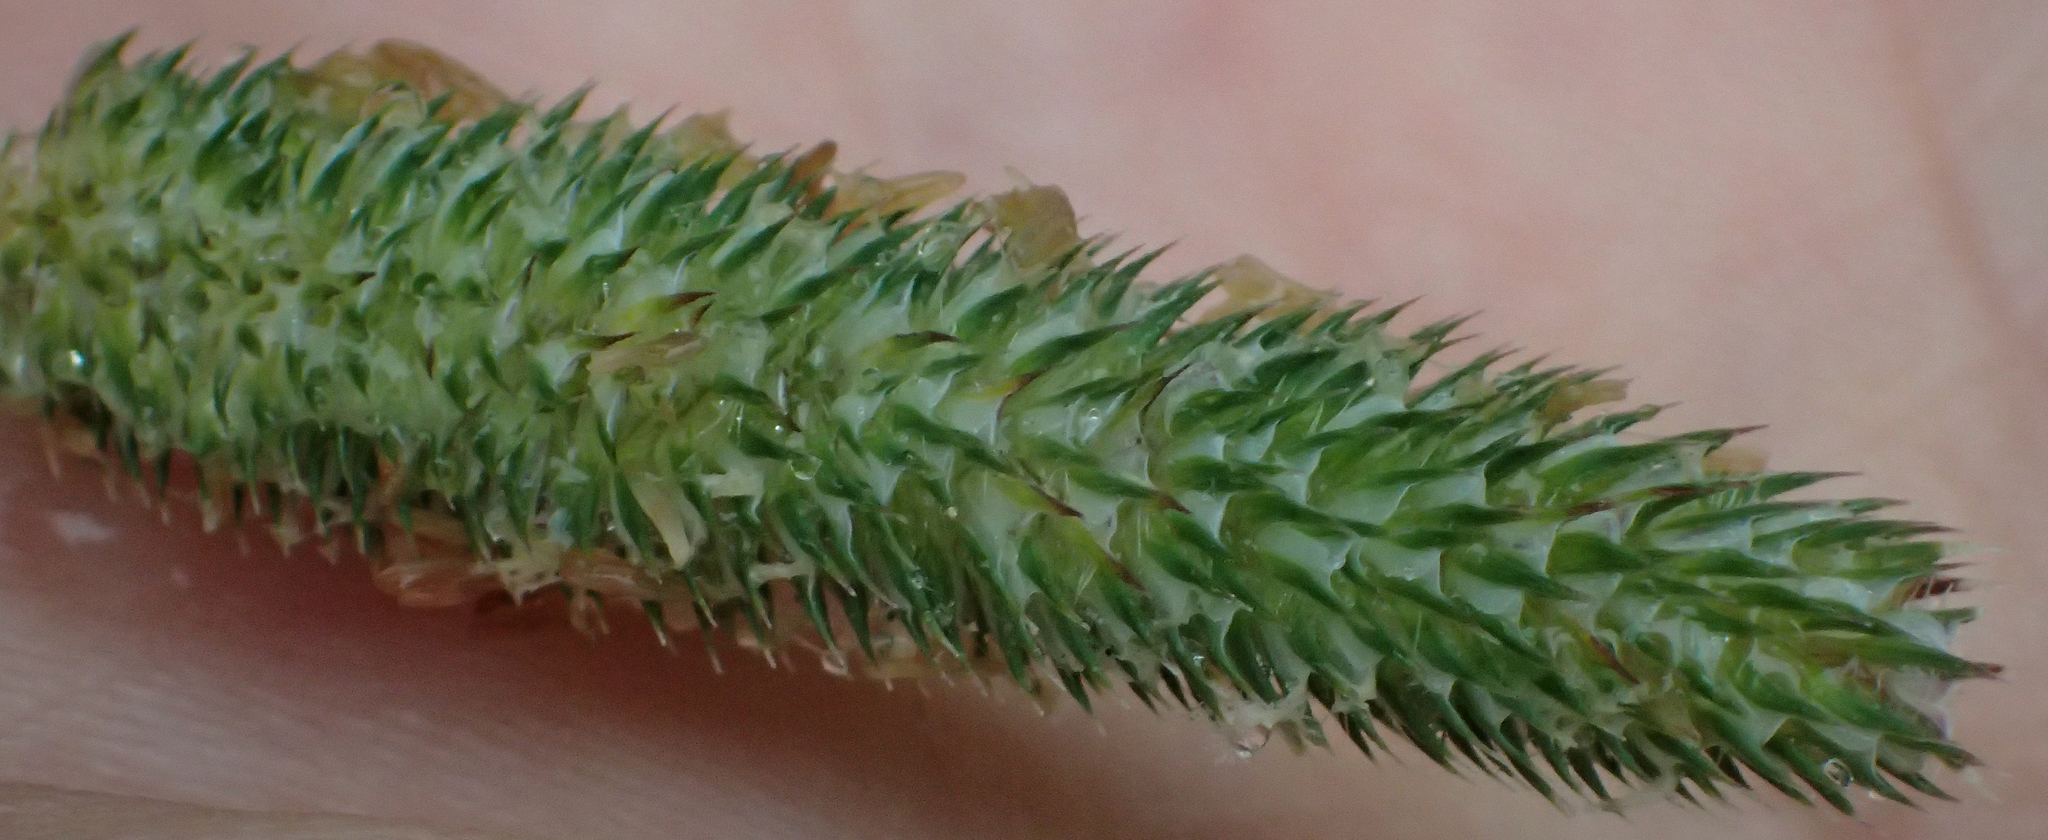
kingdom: Plantae
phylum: Tracheophyta
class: Liliopsida
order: Poales
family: Poaceae
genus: Phleum
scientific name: Phleum pratense
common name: Timothy grass
